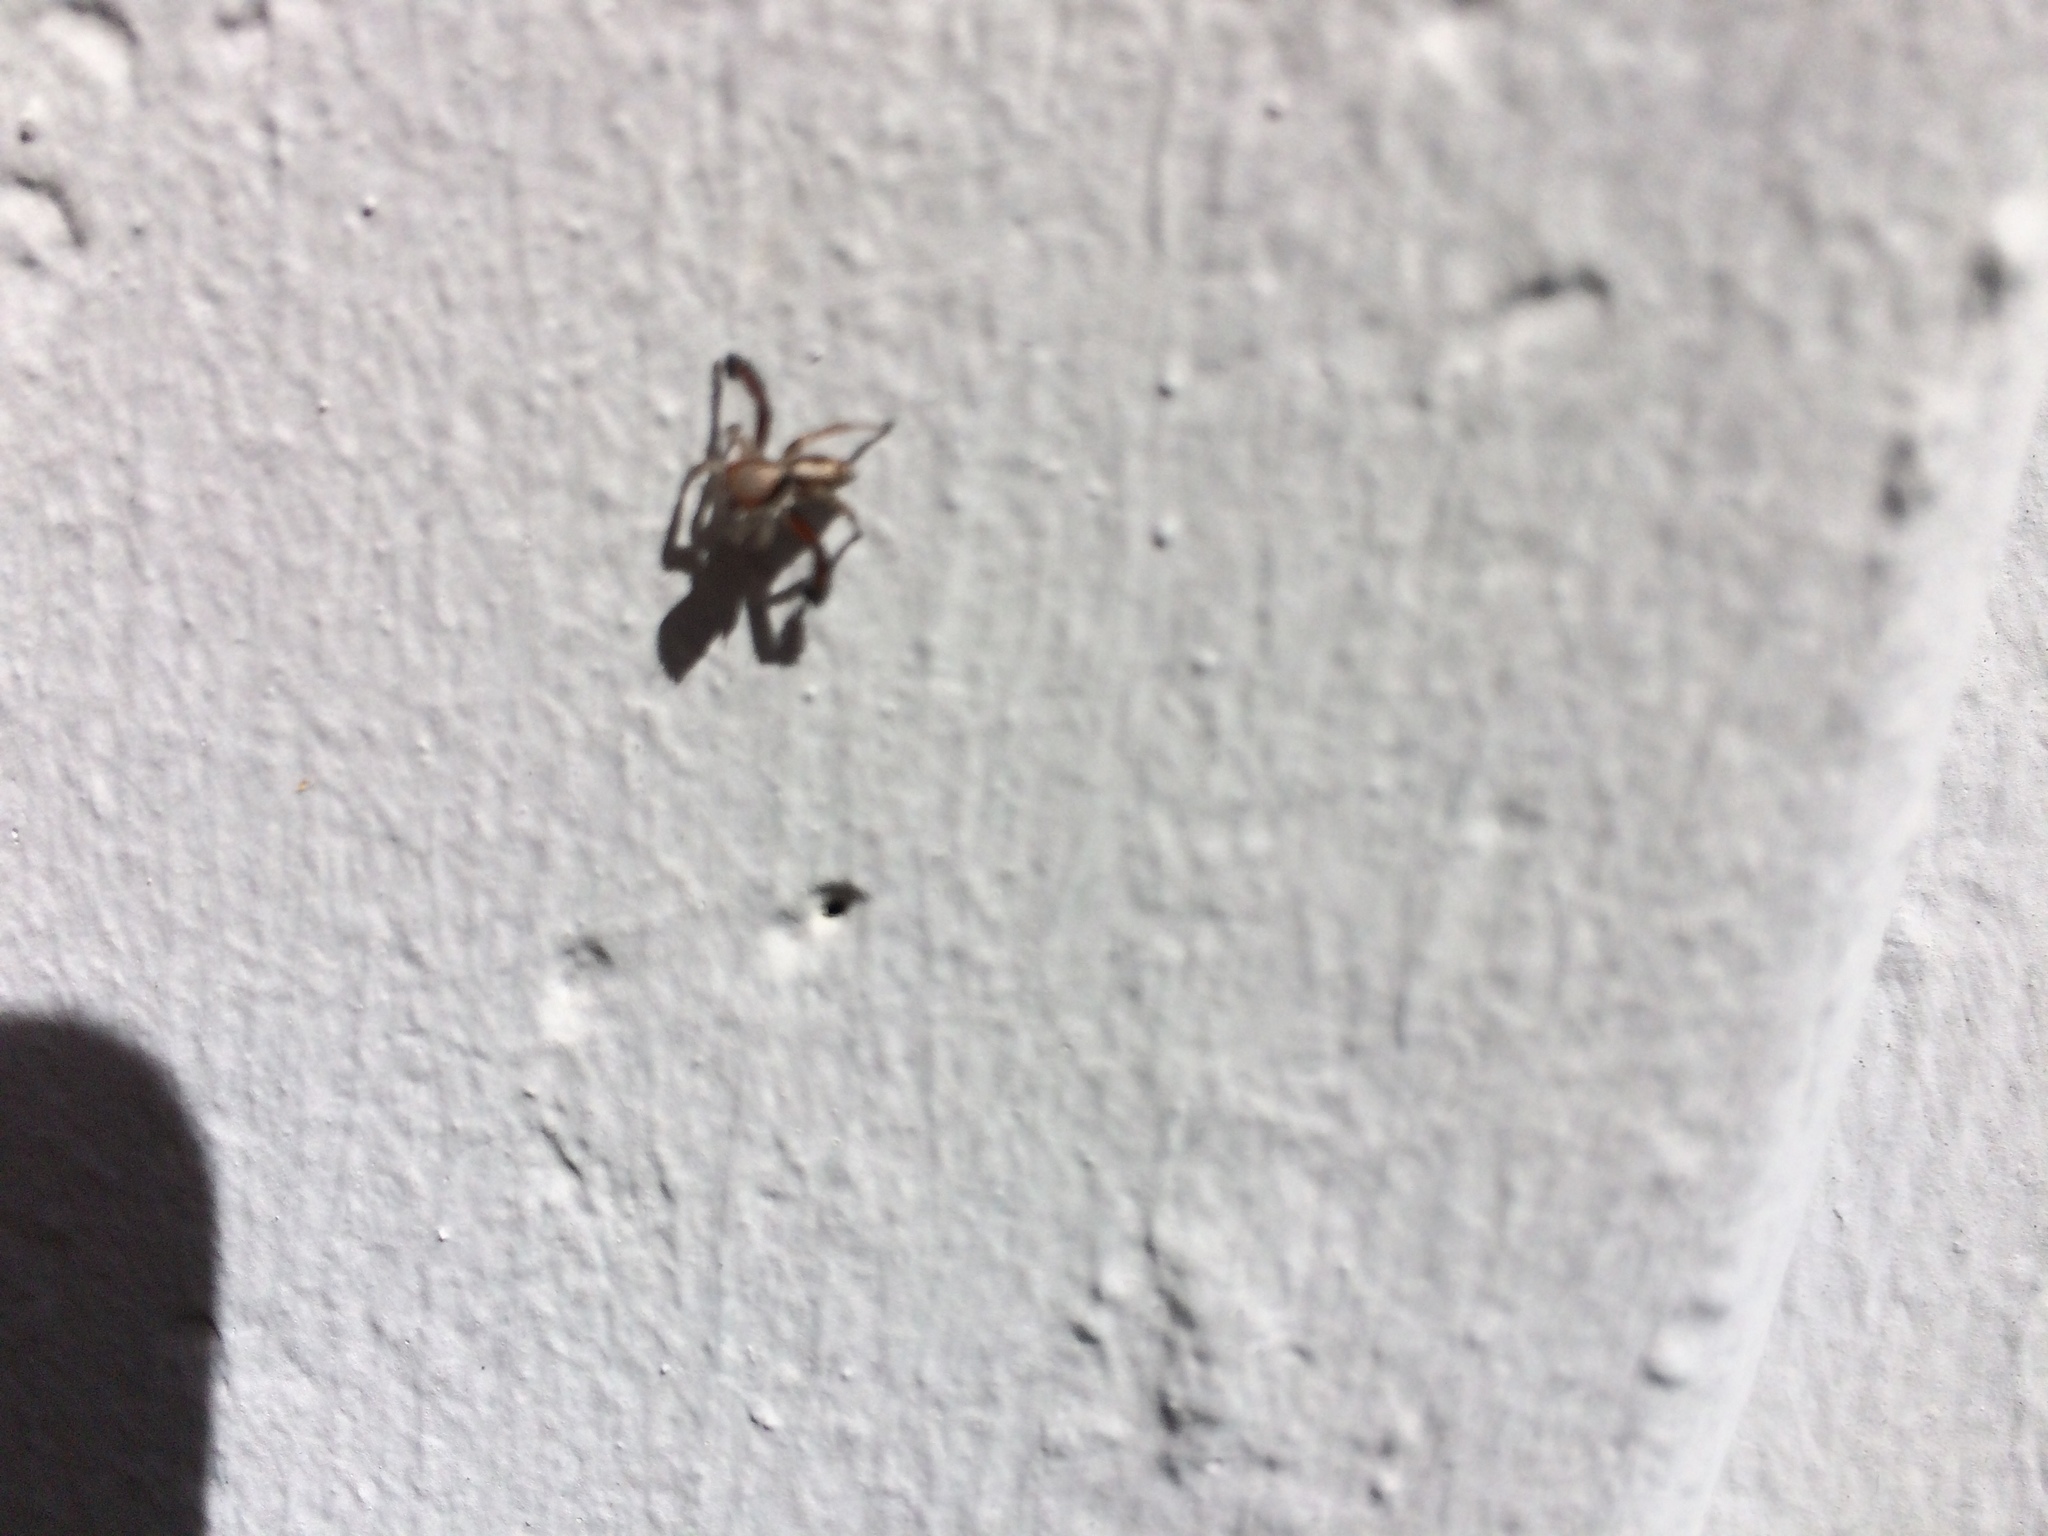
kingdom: Animalia
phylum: Arthropoda
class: Arachnida
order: Araneae
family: Salticidae
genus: Saitis
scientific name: Saitis barbipes
